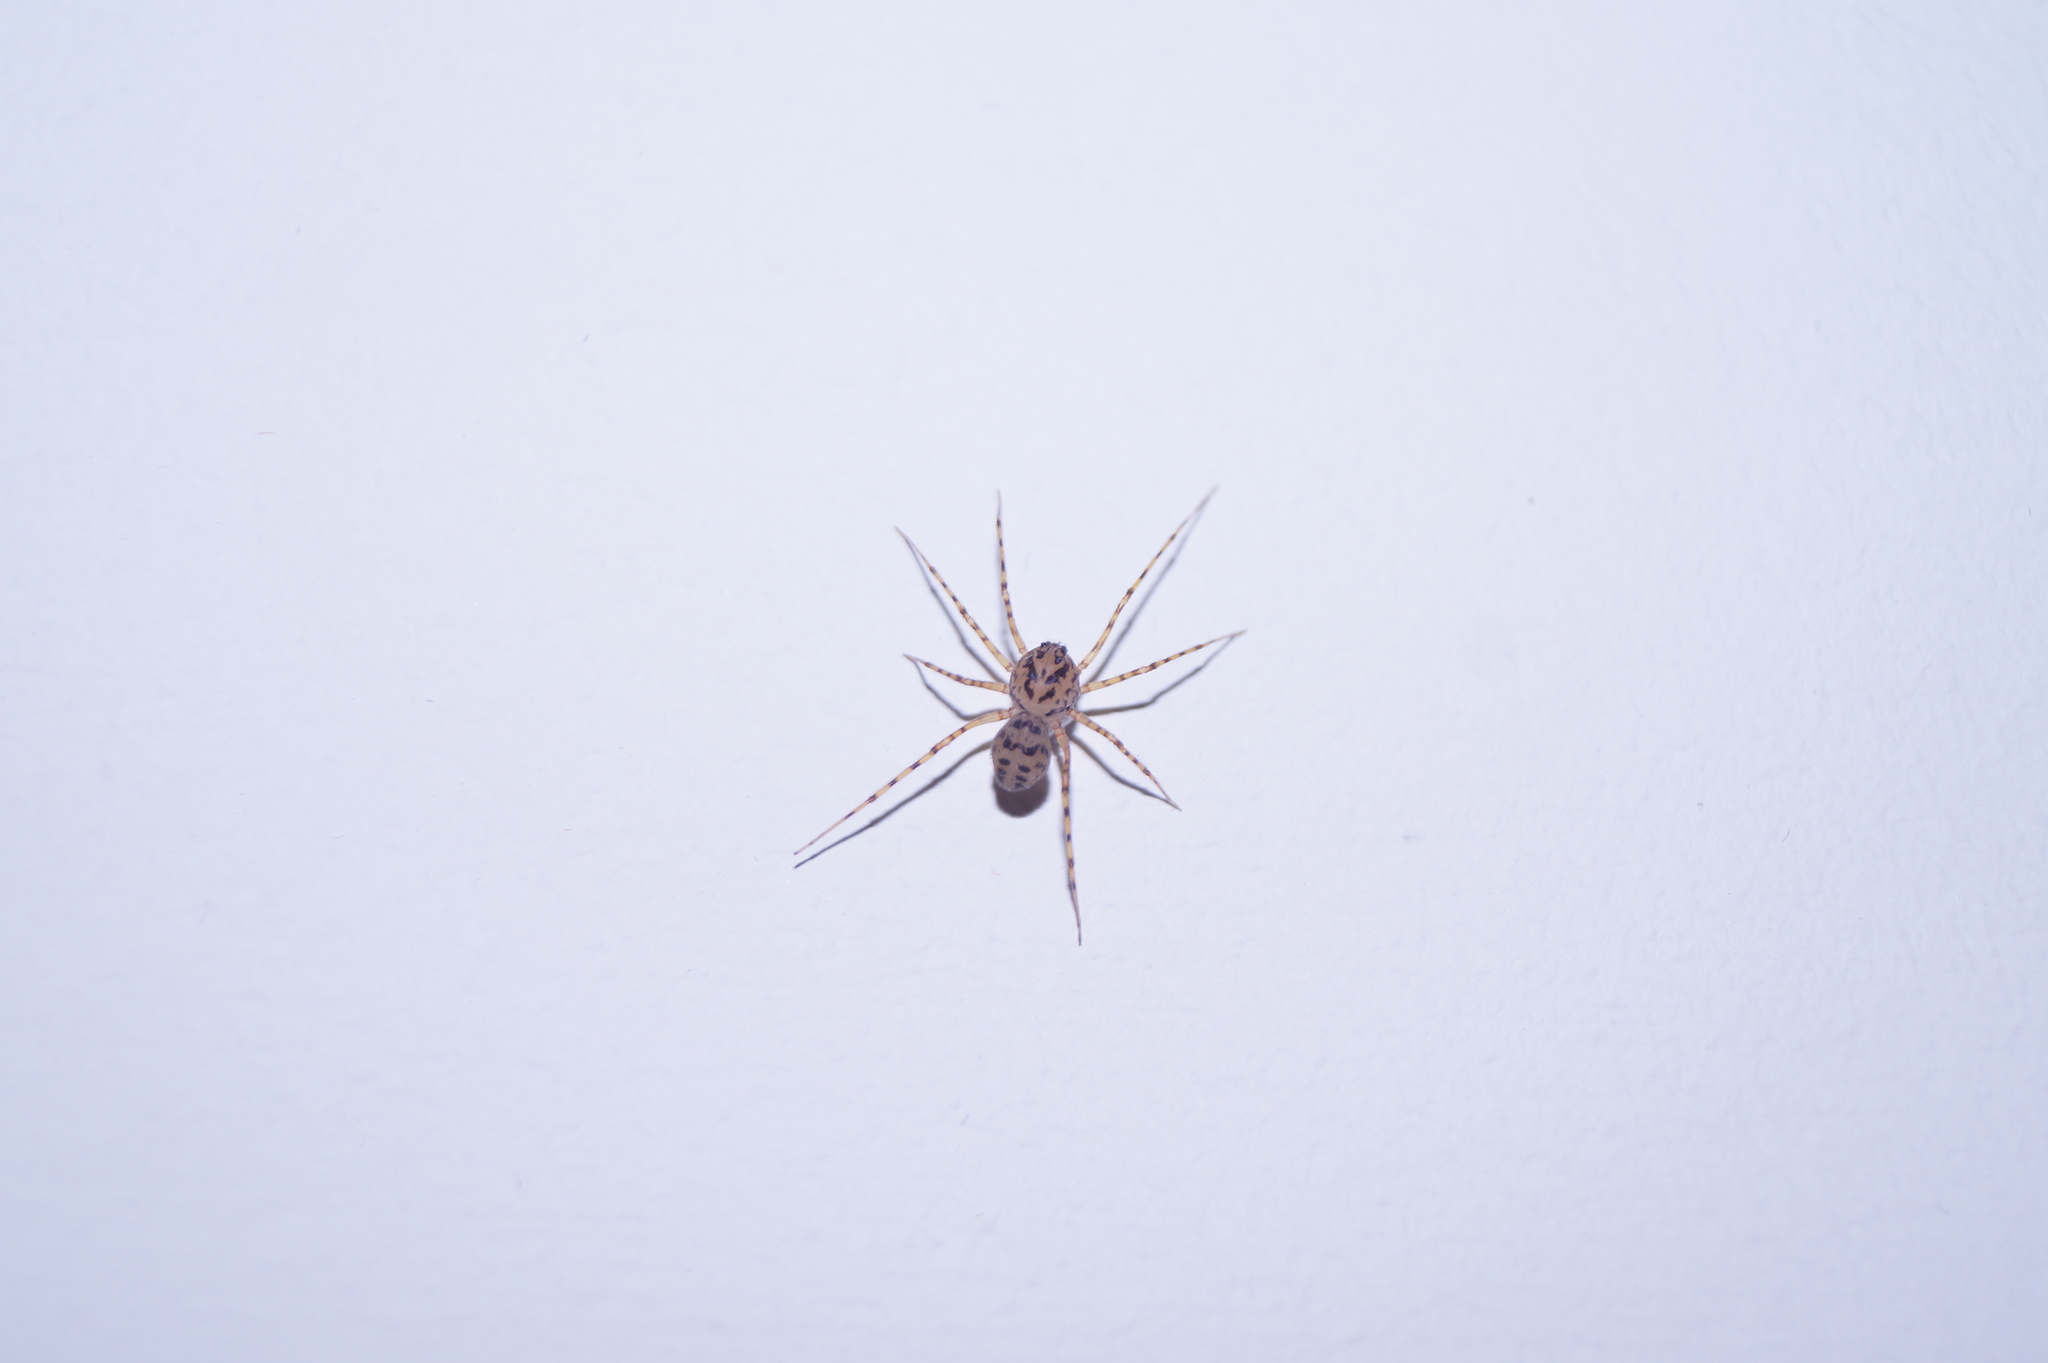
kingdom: Animalia
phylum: Arthropoda
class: Arachnida
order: Araneae
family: Scytodidae
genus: Scytodes
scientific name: Scytodes thoracica
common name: Spitting spider
